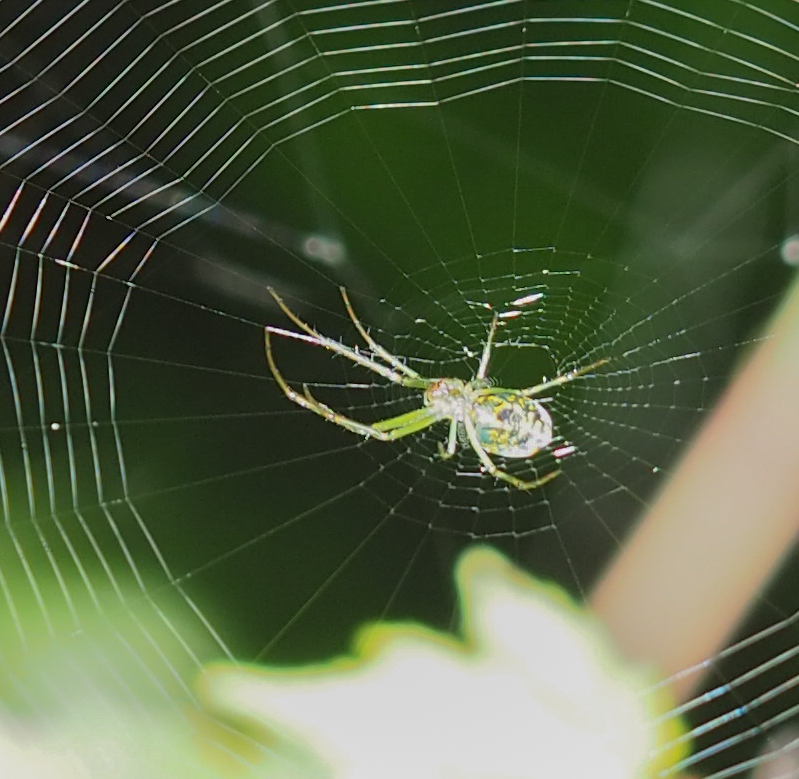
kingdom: Animalia
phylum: Arthropoda
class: Arachnida
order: Araneae
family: Tetragnathidae
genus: Leucauge
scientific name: Leucauge venusta
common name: Longjawed orb weavers
